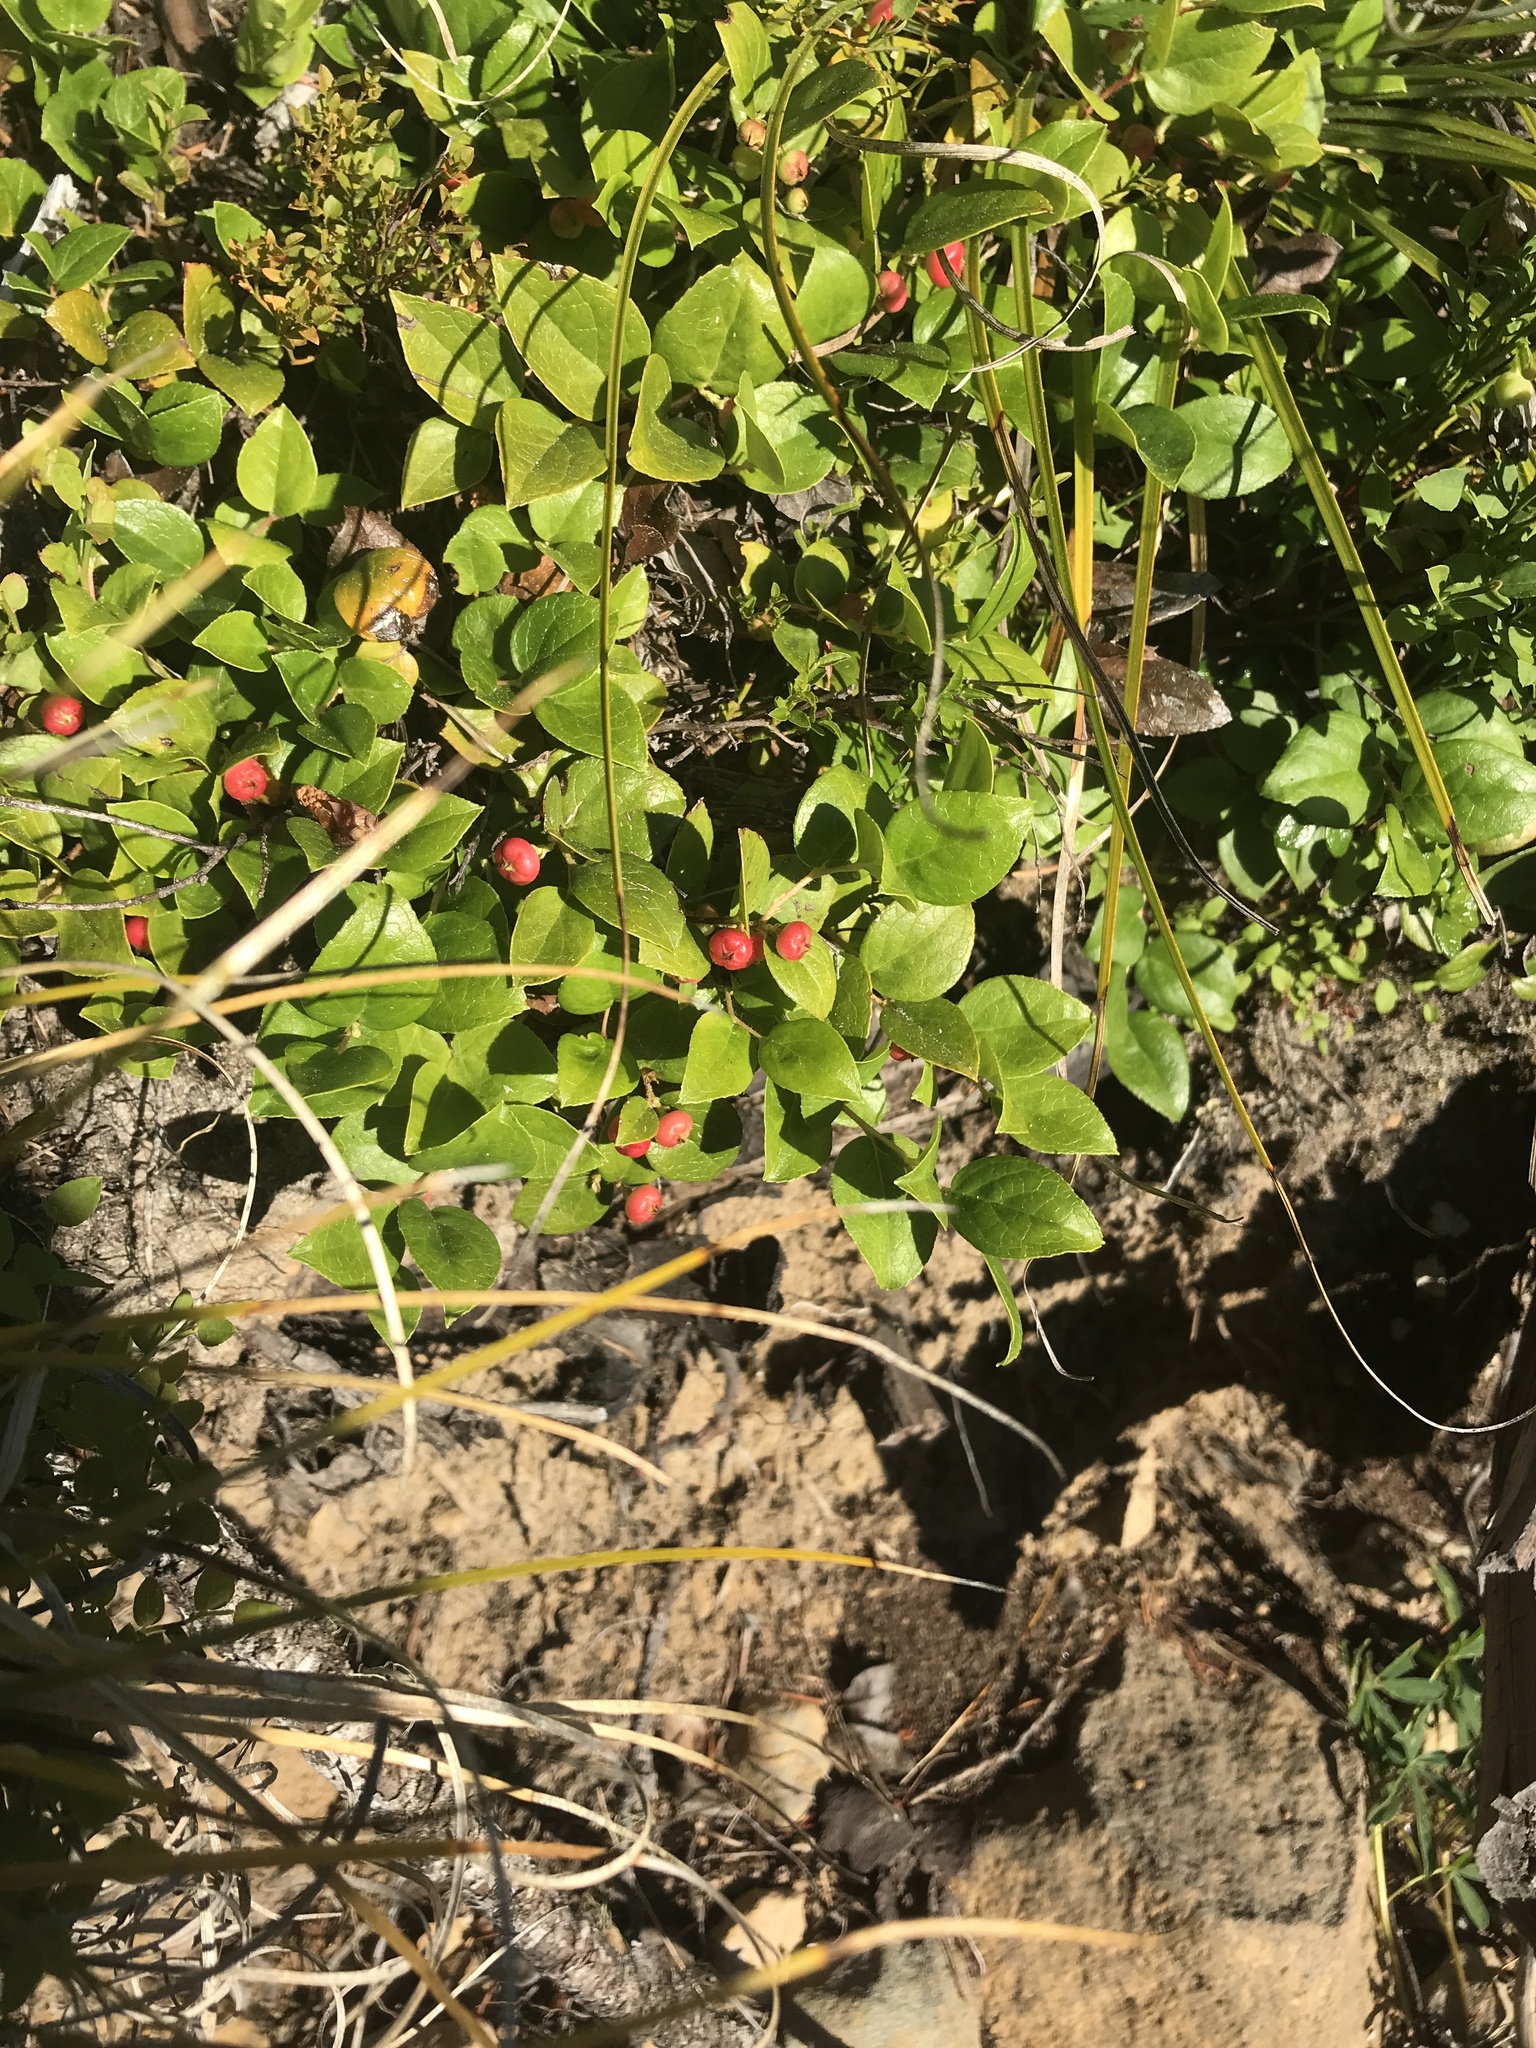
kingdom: Plantae
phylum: Tracheophyta
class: Magnoliopsida
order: Ericales
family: Ericaceae
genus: Gaultheria
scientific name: Gaultheria ovatifolia
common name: Oregon wintergreen
